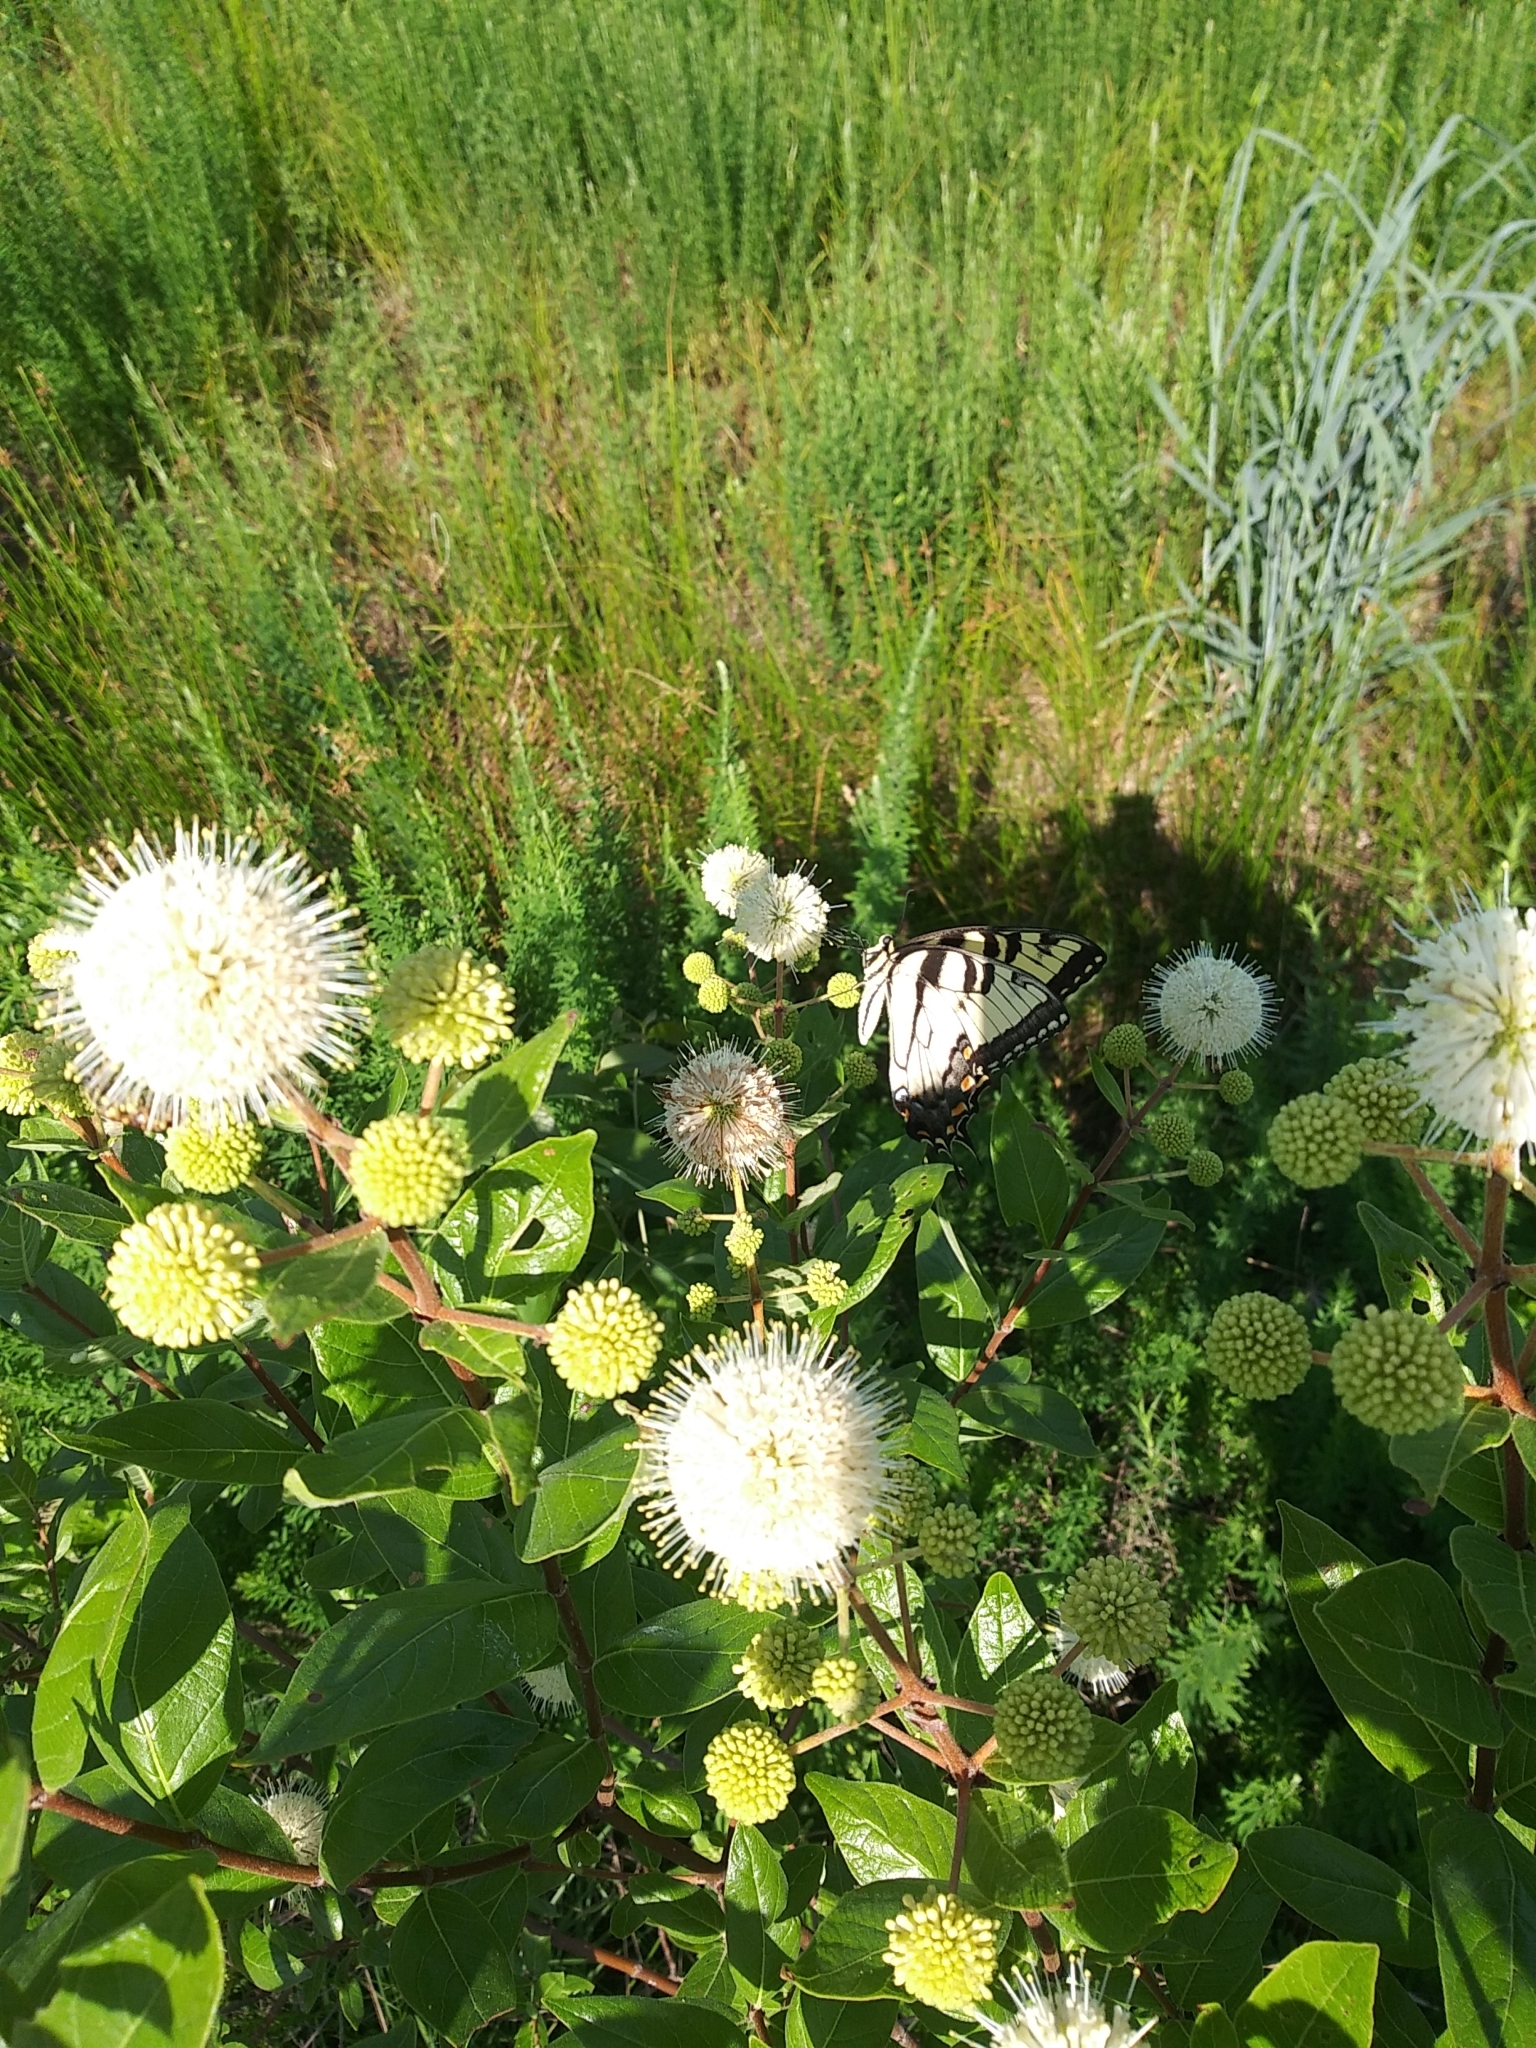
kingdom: Animalia
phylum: Arthropoda
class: Insecta
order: Lepidoptera
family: Papilionidae
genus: Papilio
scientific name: Papilio glaucus
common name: Tiger swallowtail
